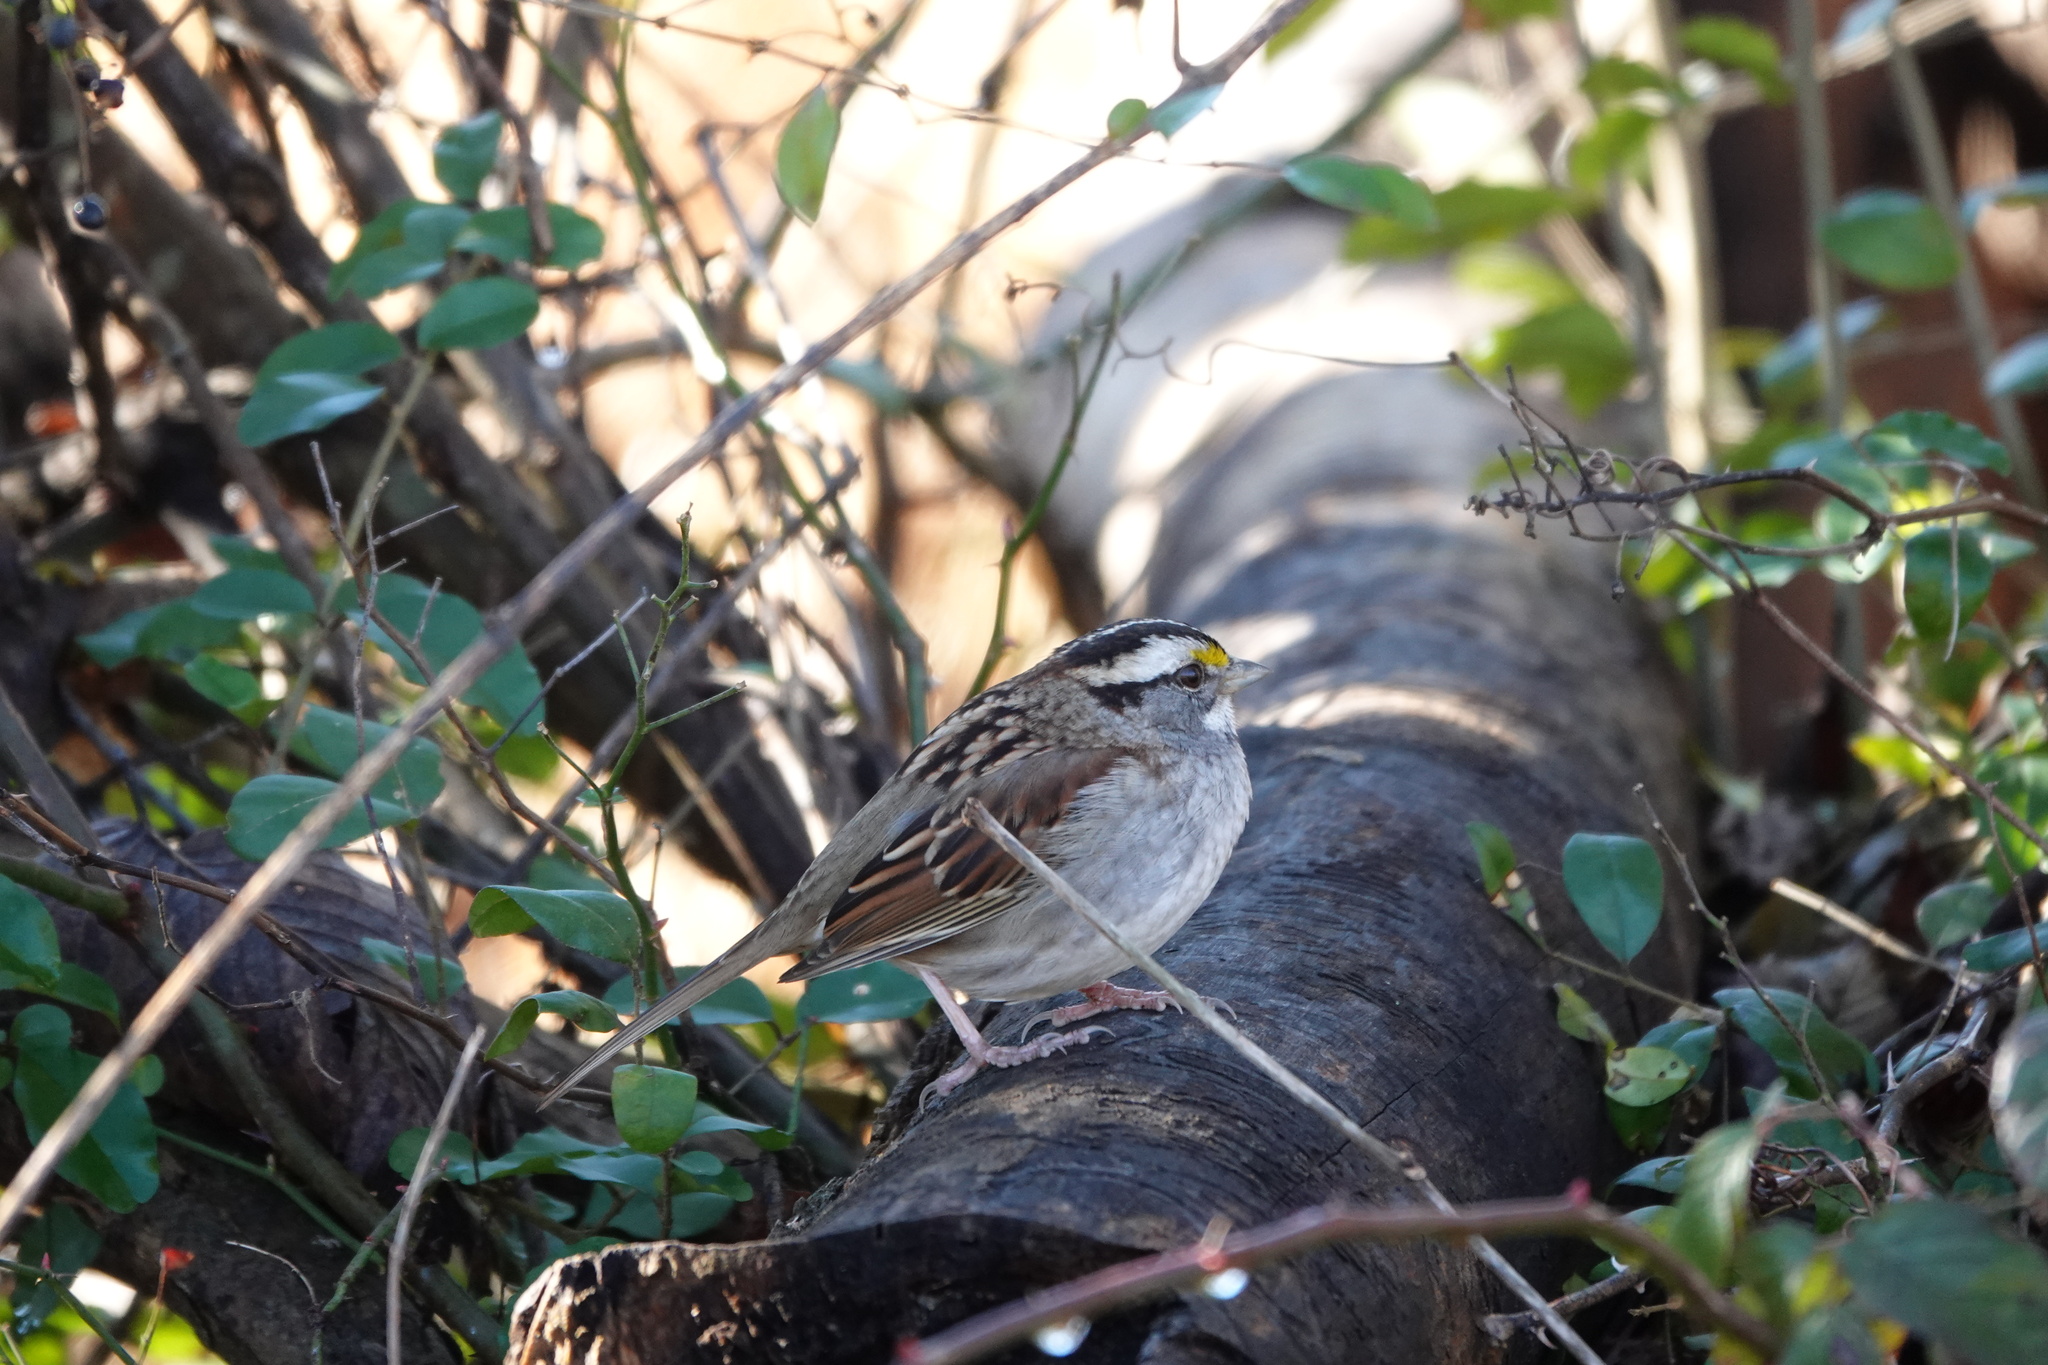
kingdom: Animalia
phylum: Chordata
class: Aves
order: Passeriformes
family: Passerellidae
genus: Zonotrichia
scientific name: Zonotrichia albicollis
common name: White-throated sparrow
